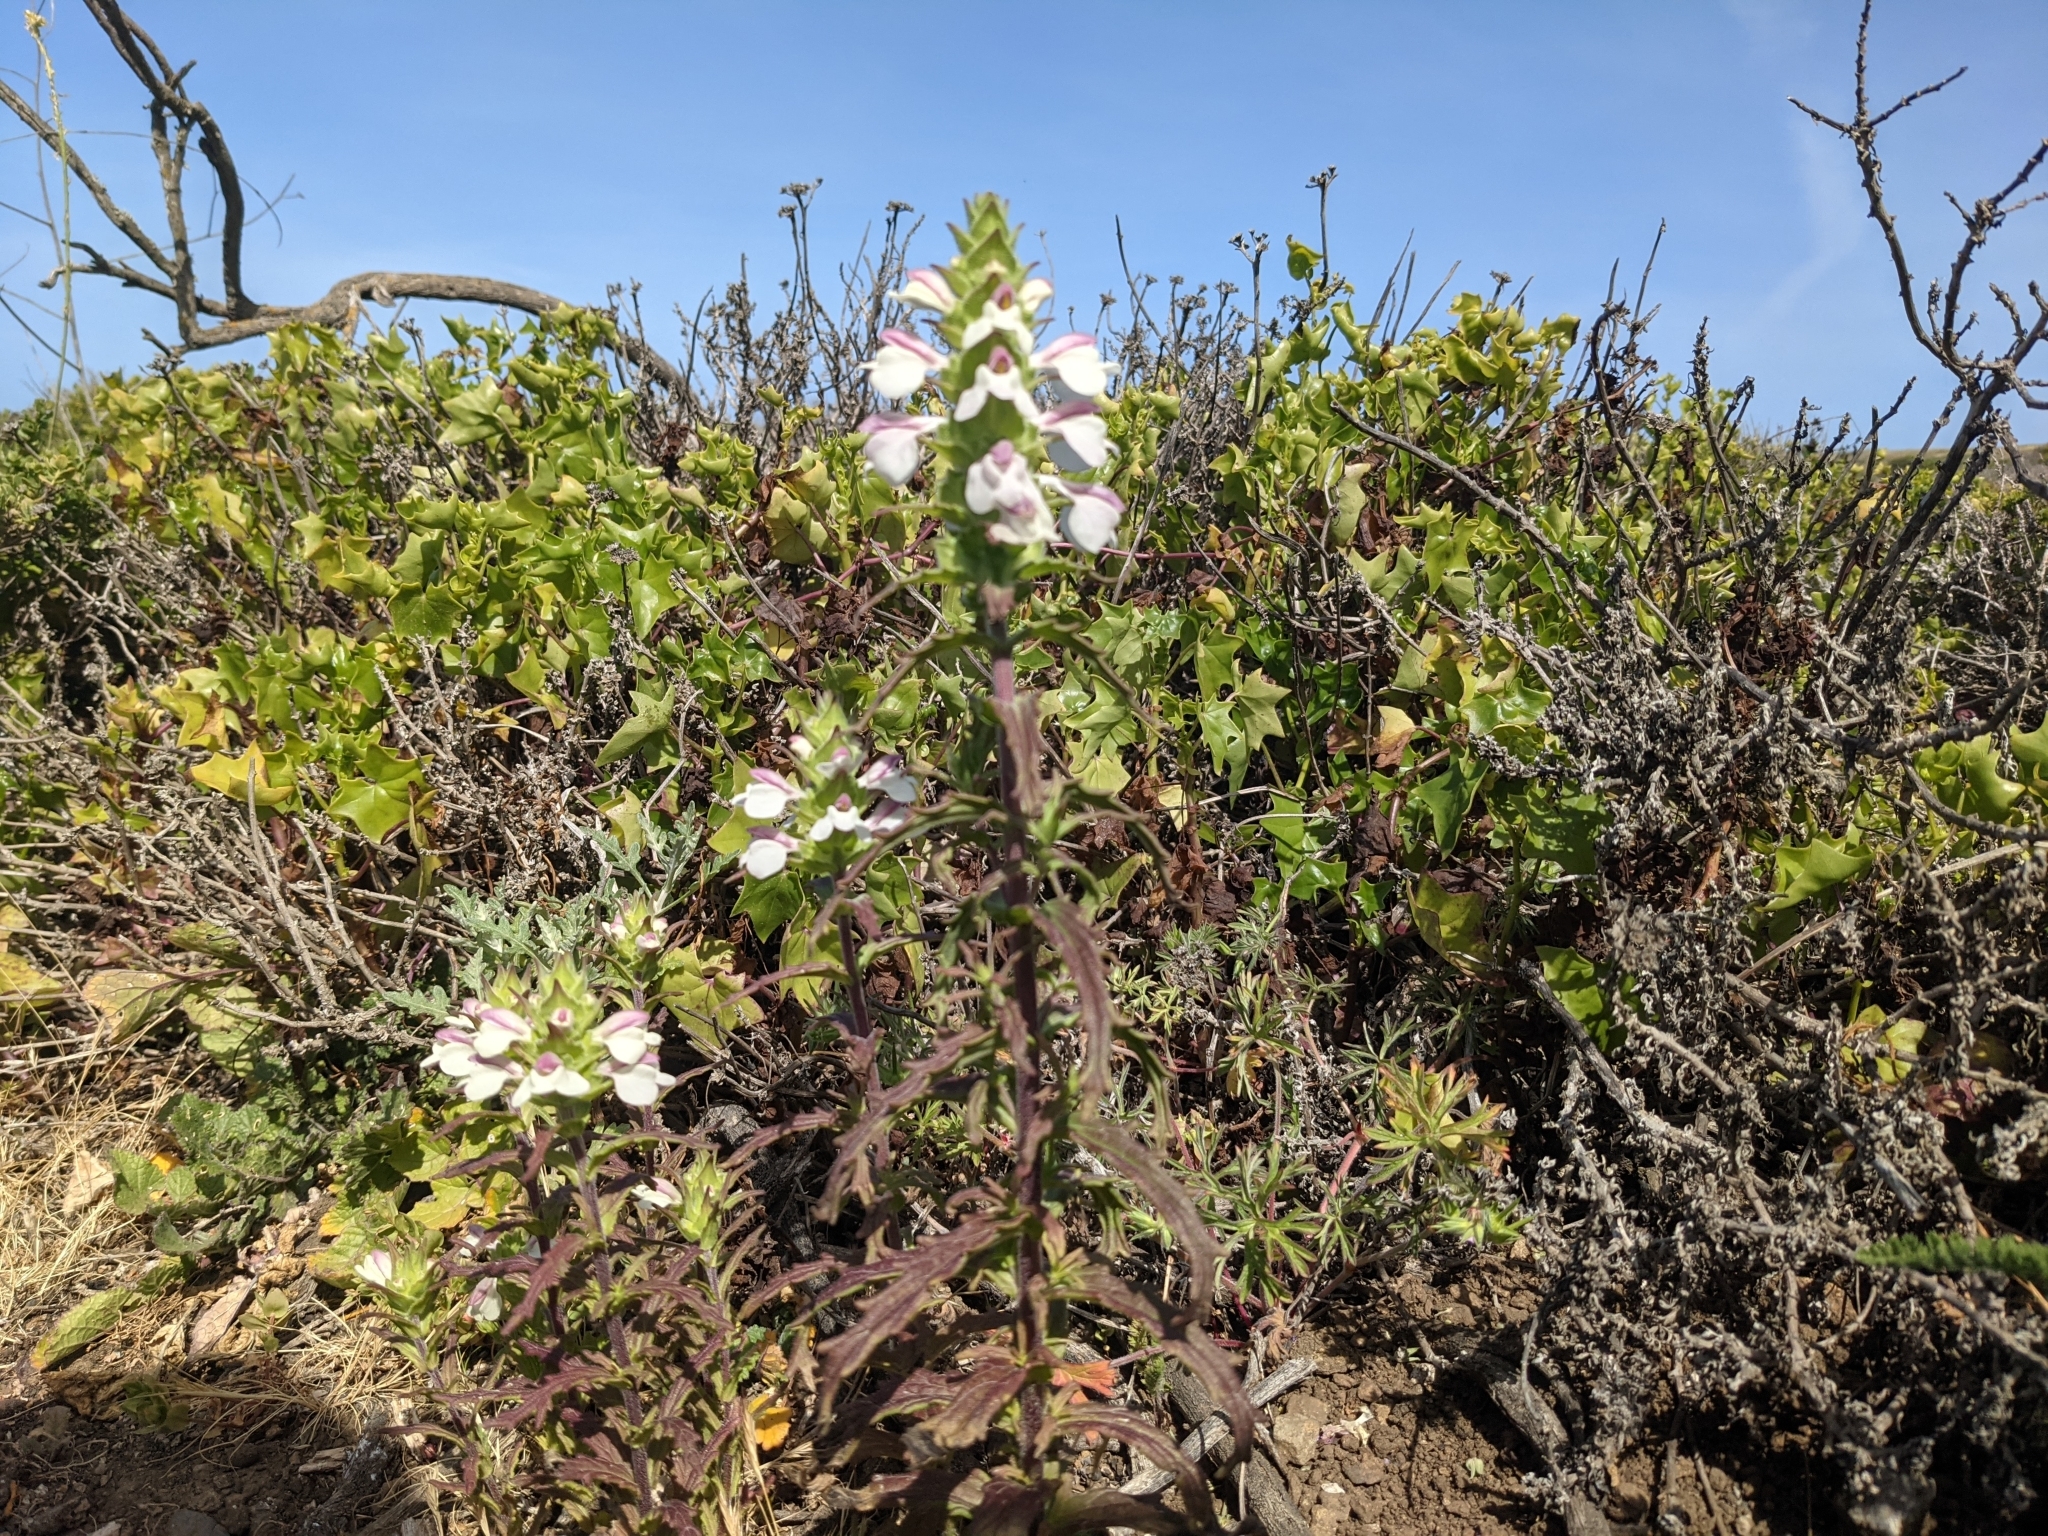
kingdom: Plantae
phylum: Tracheophyta
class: Magnoliopsida
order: Lamiales
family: Orobanchaceae
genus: Bellardia
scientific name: Bellardia trixago
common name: Mediterranean lineseed
